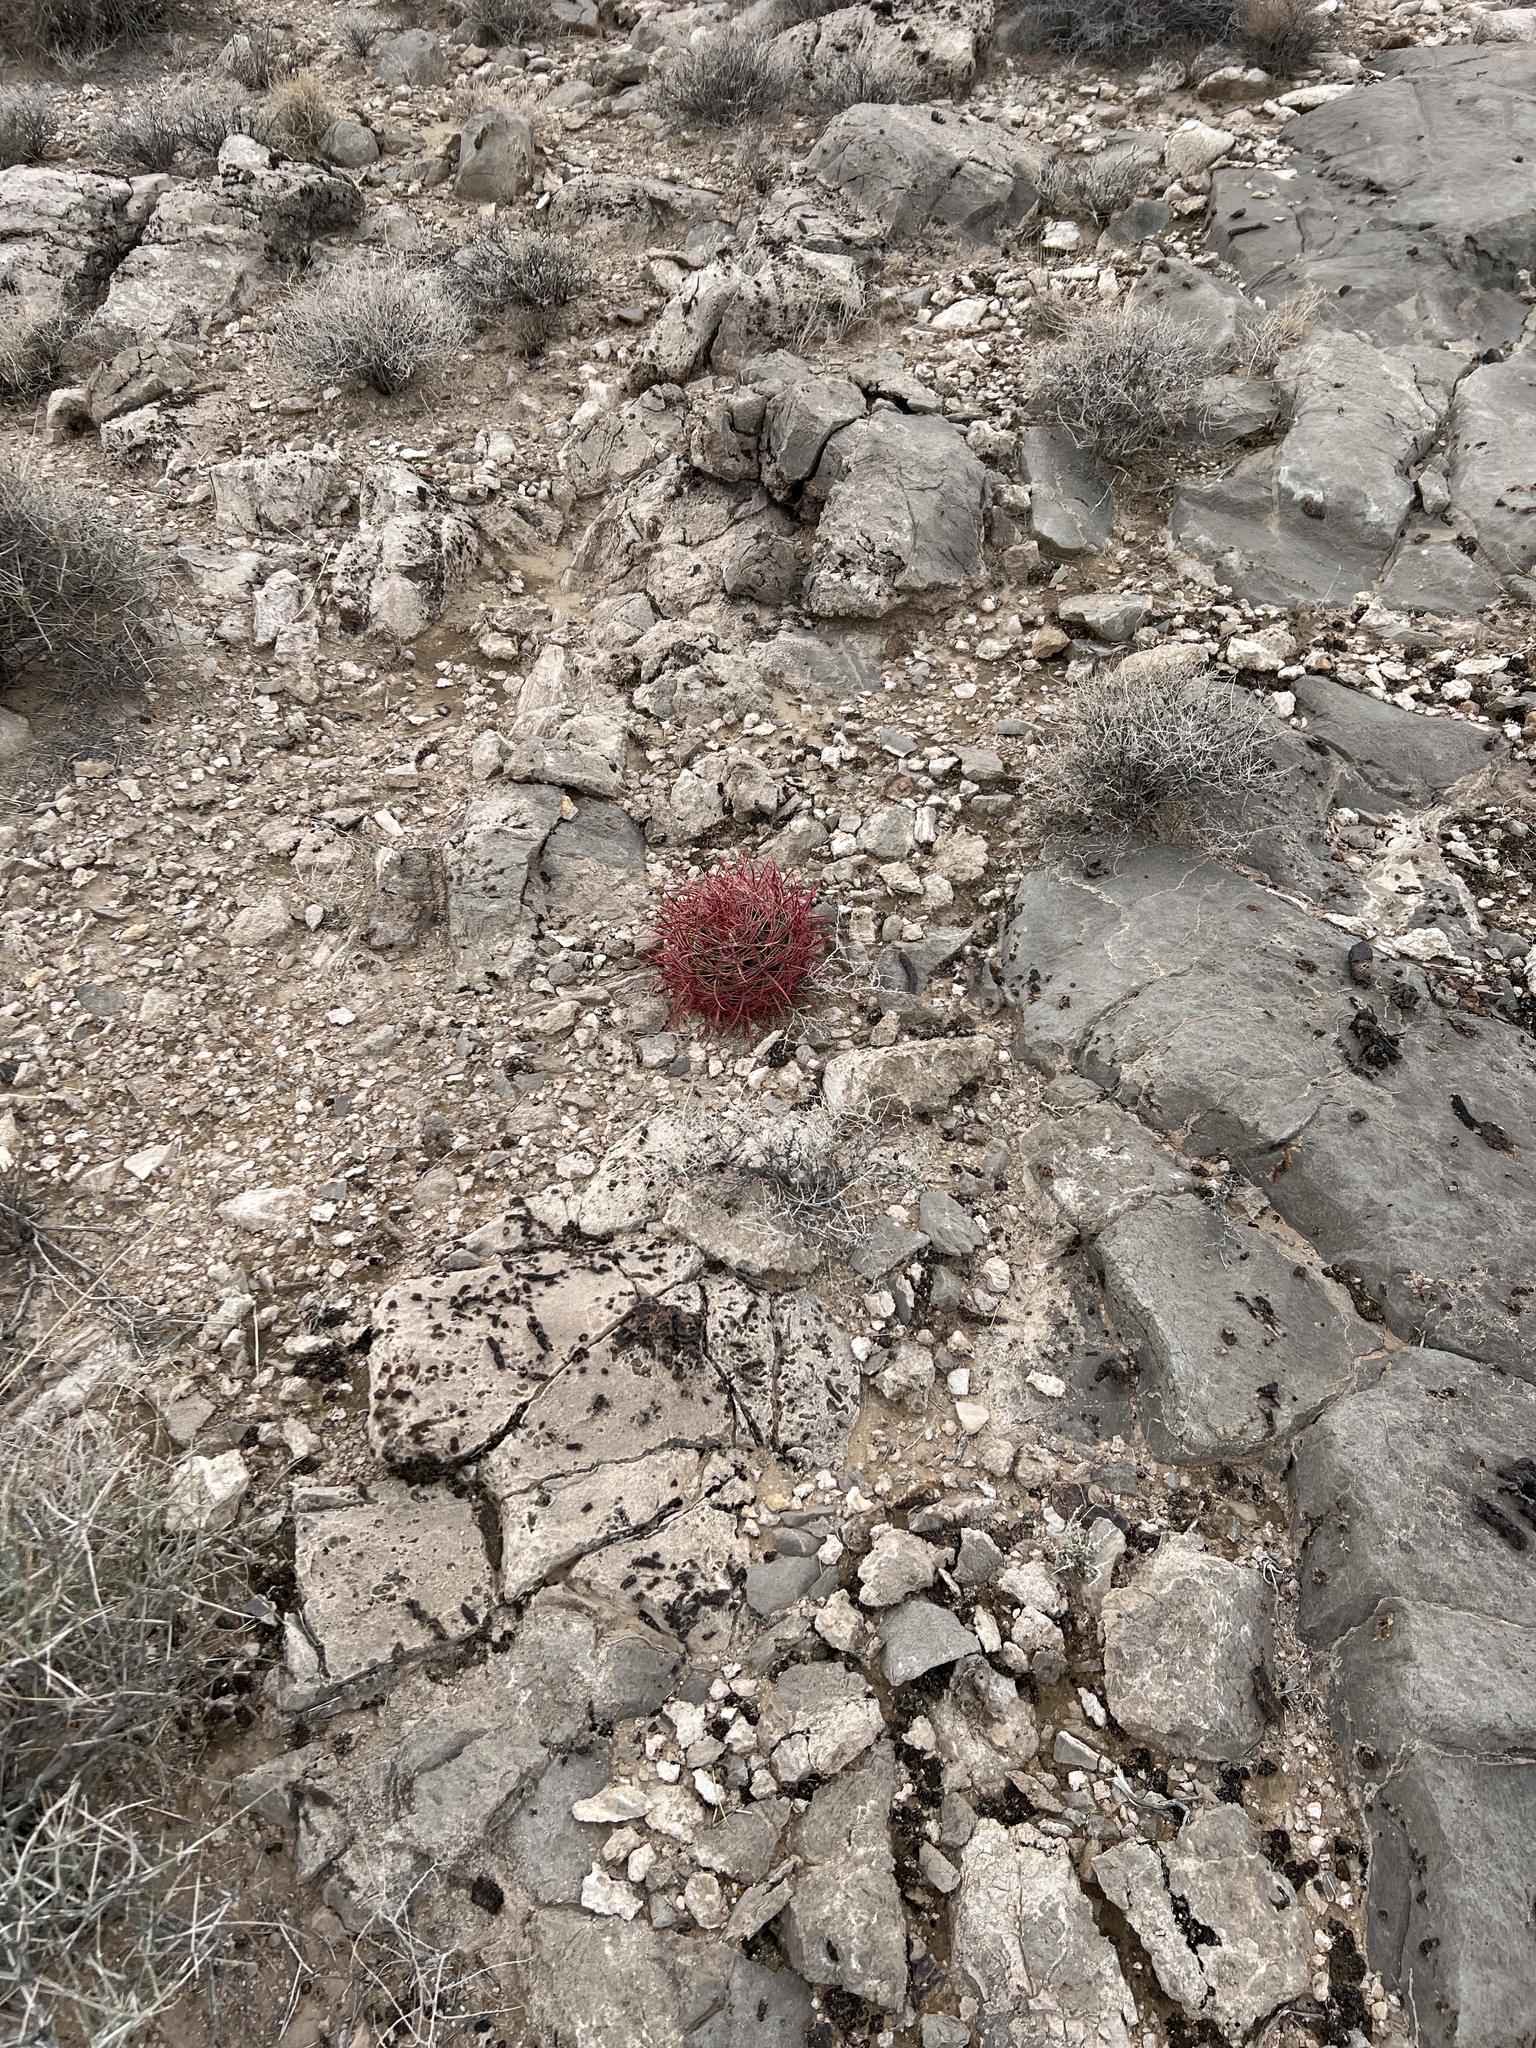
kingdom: Plantae
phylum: Tracheophyta
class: Magnoliopsida
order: Caryophyllales
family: Cactaceae
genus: Ferocactus
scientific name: Ferocactus cylindraceus
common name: California barrel cactus
